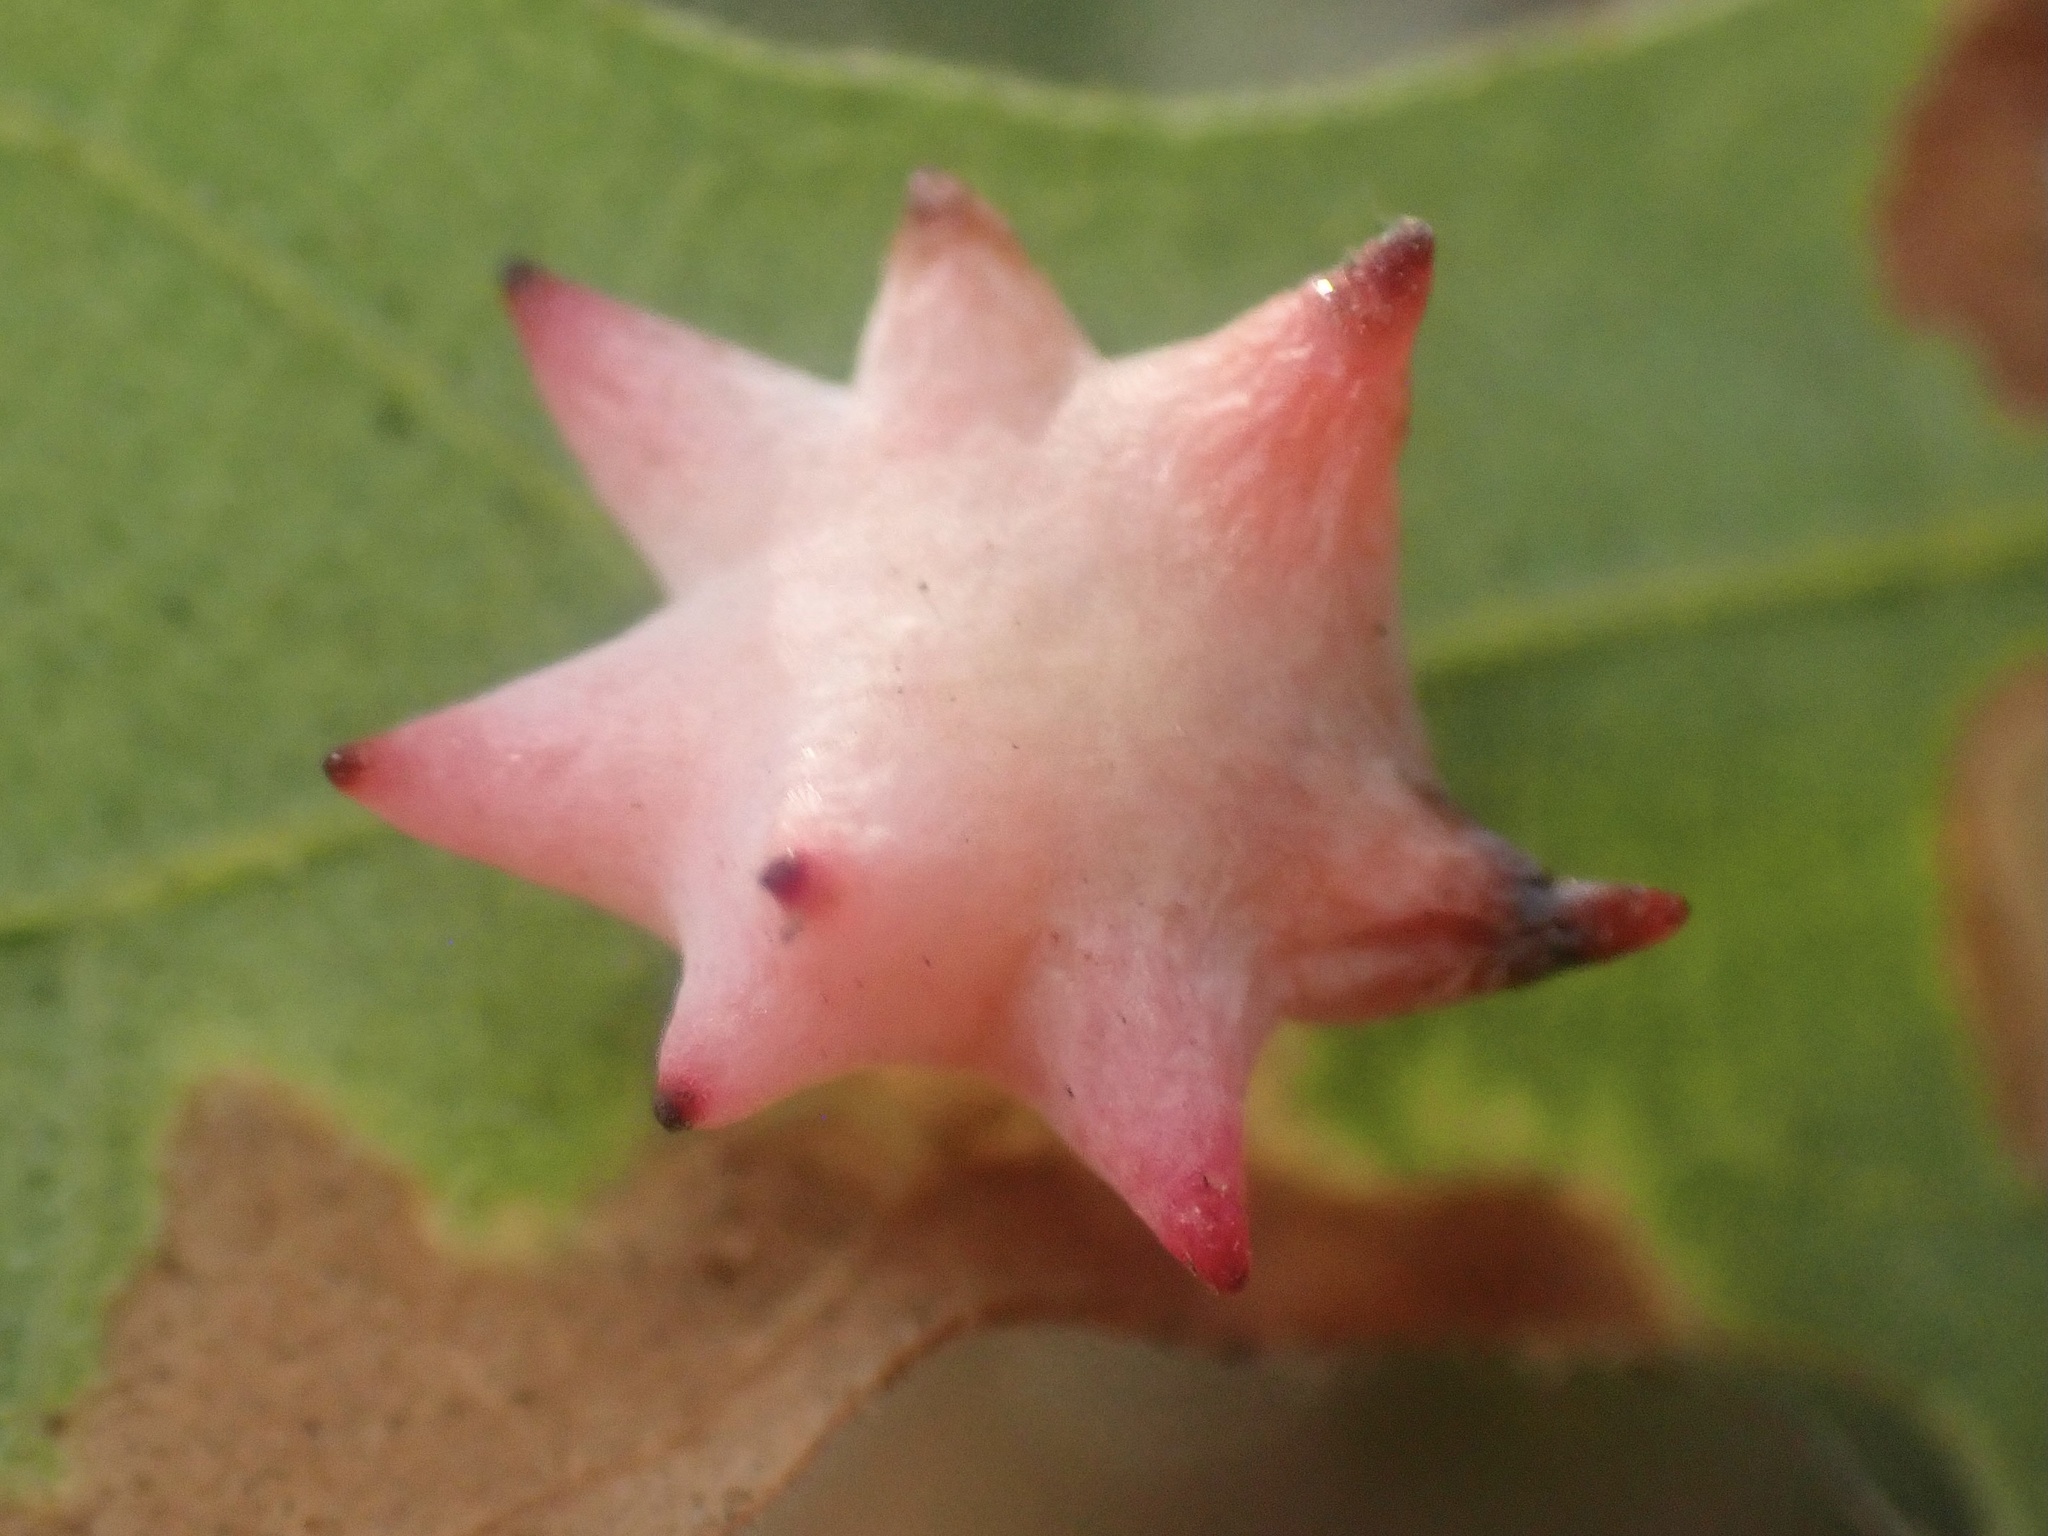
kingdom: Animalia
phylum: Arthropoda
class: Insecta
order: Hymenoptera
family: Cynipidae
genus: Cynips
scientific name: Cynips douglasi
